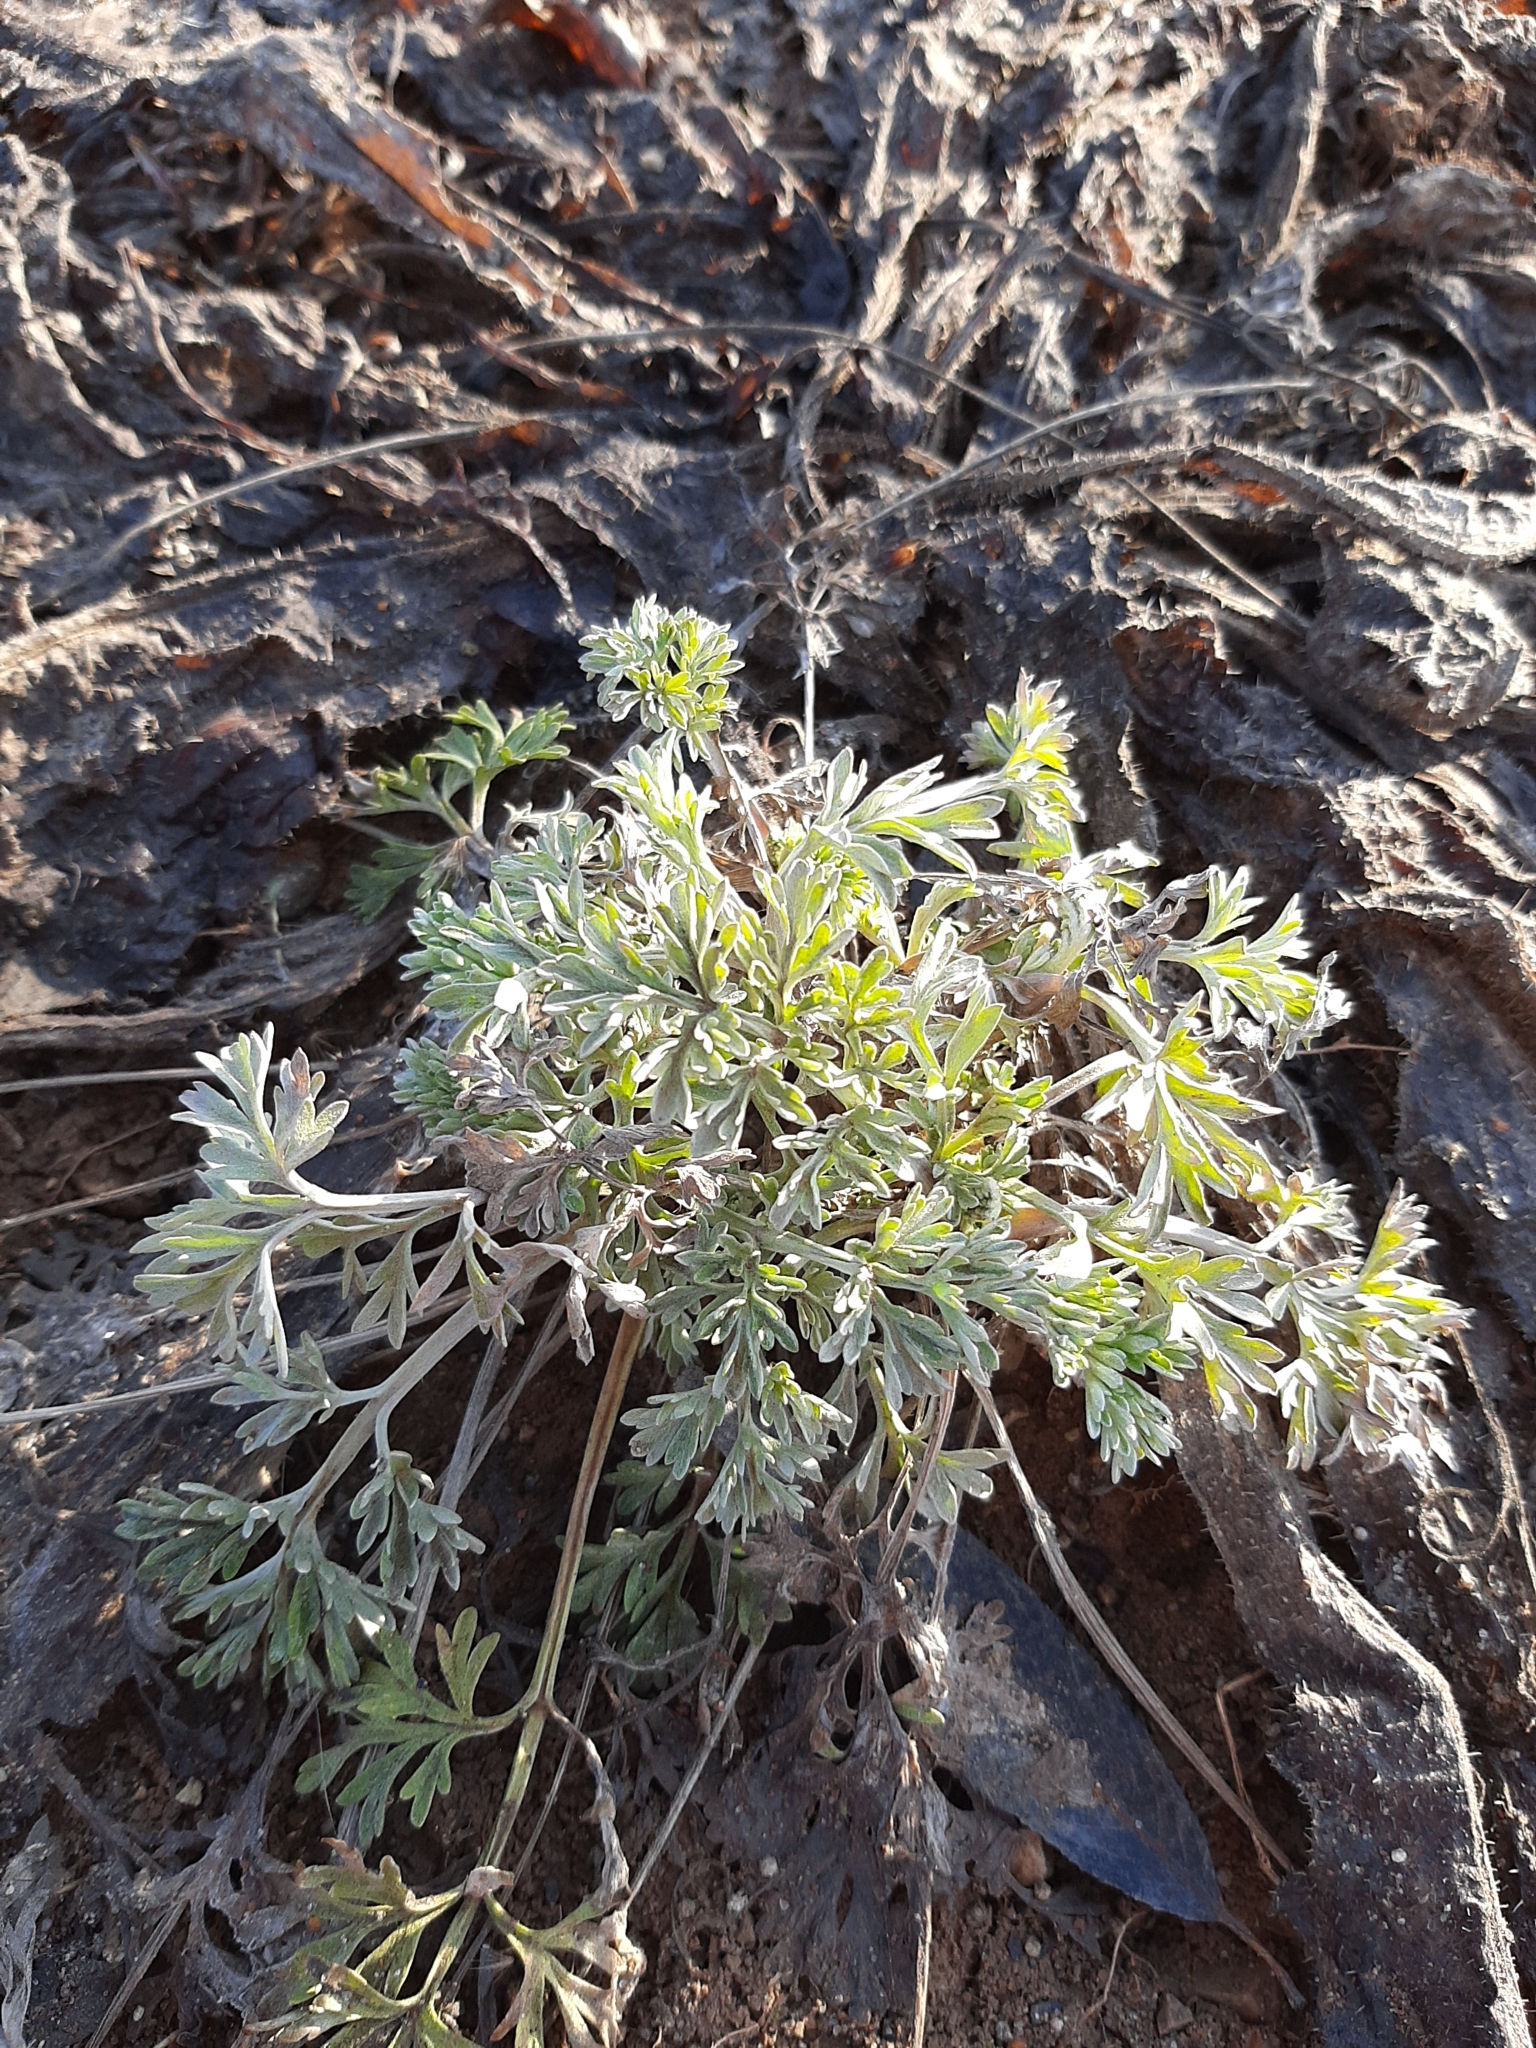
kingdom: Plantae
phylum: Tracheophyta
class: Magnoliopsida
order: Asterales
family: Asteraceae
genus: Artemisia
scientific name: Artemisia absinthium
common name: Wormwood
